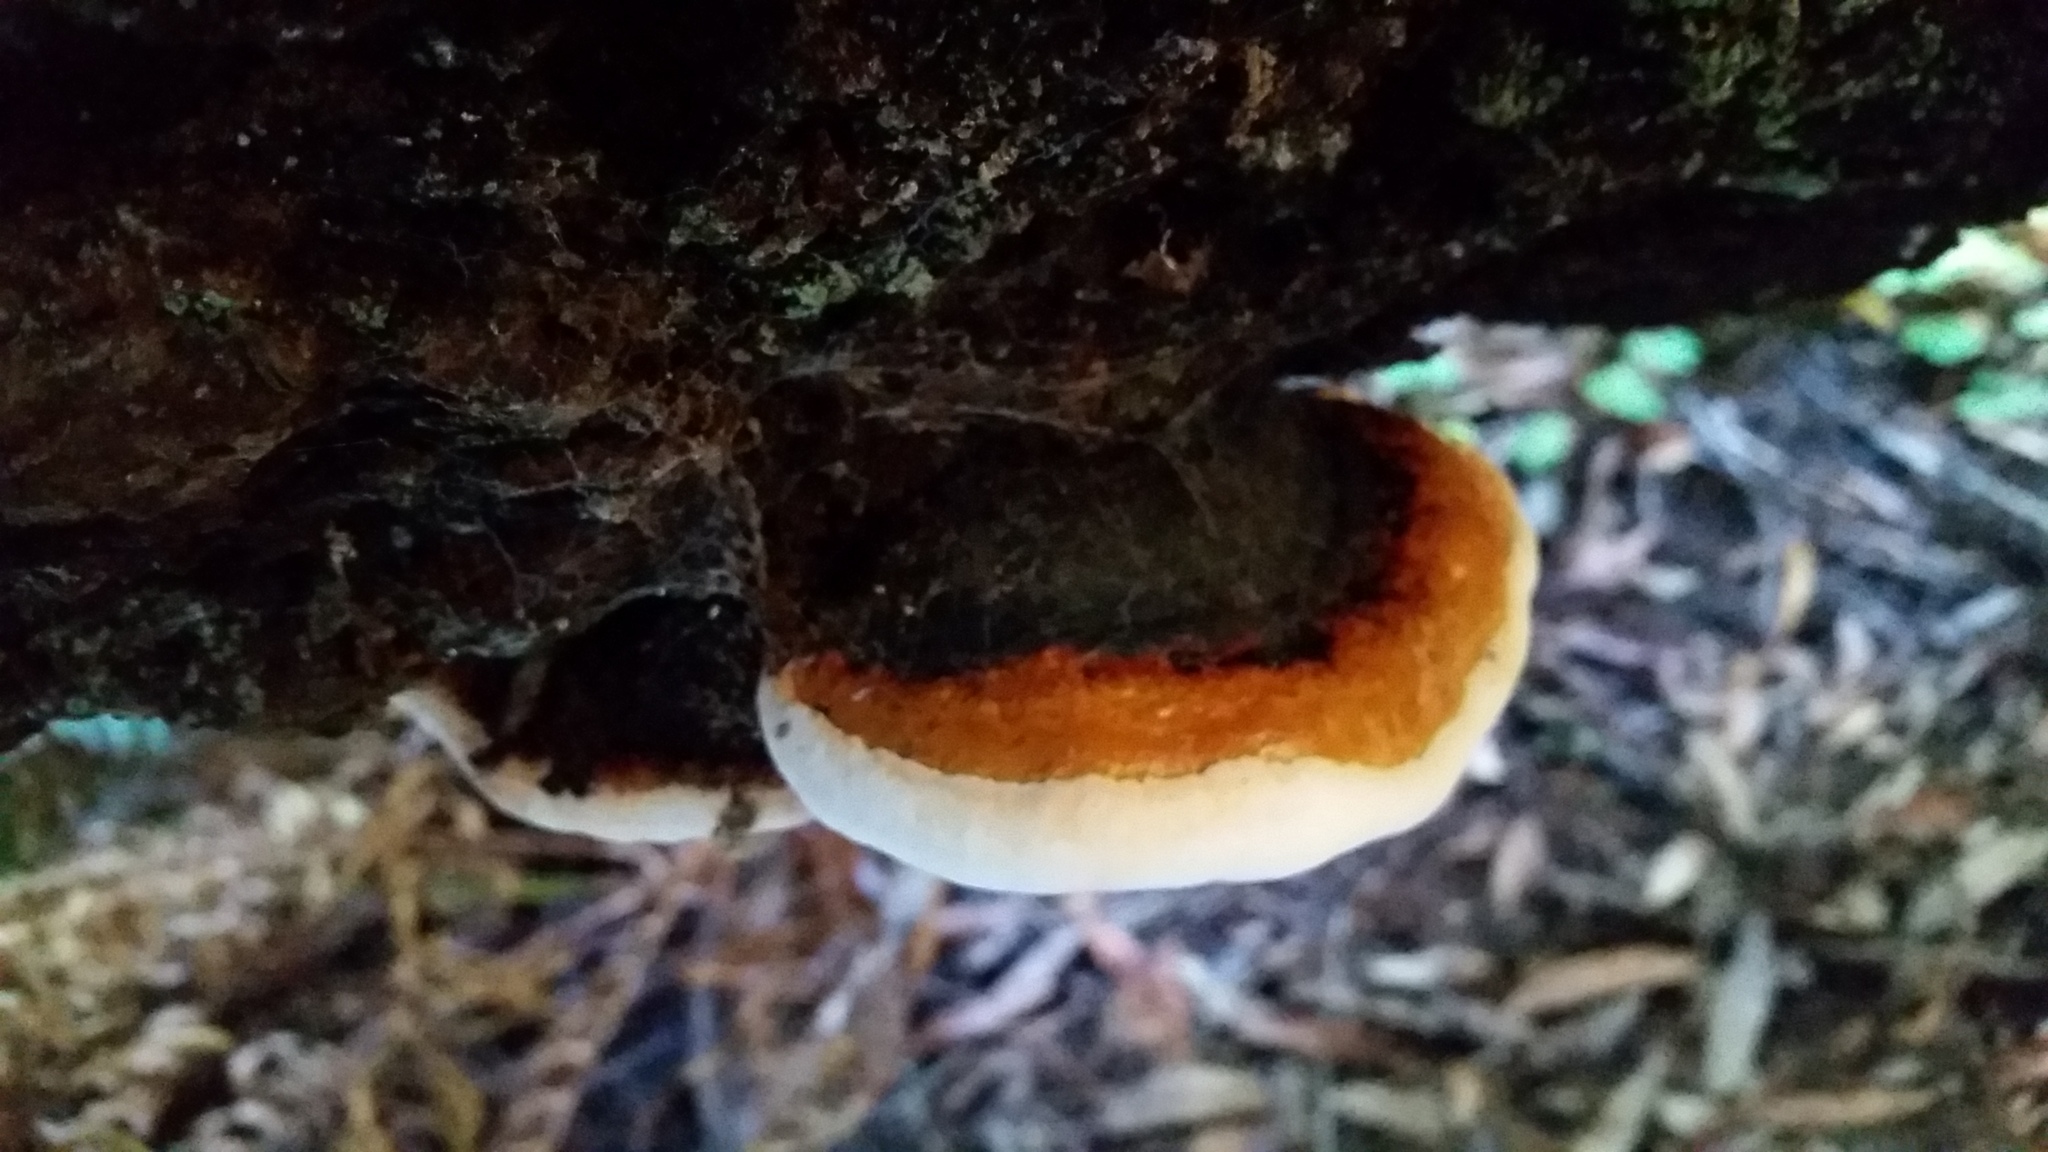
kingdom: Fungi
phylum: Basidiomycota
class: Agaricomycetes
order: Polyporales
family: Fomitopsidaceae
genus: Fomitopsis
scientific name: Fomitopsis mounceae
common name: Northern red belt
